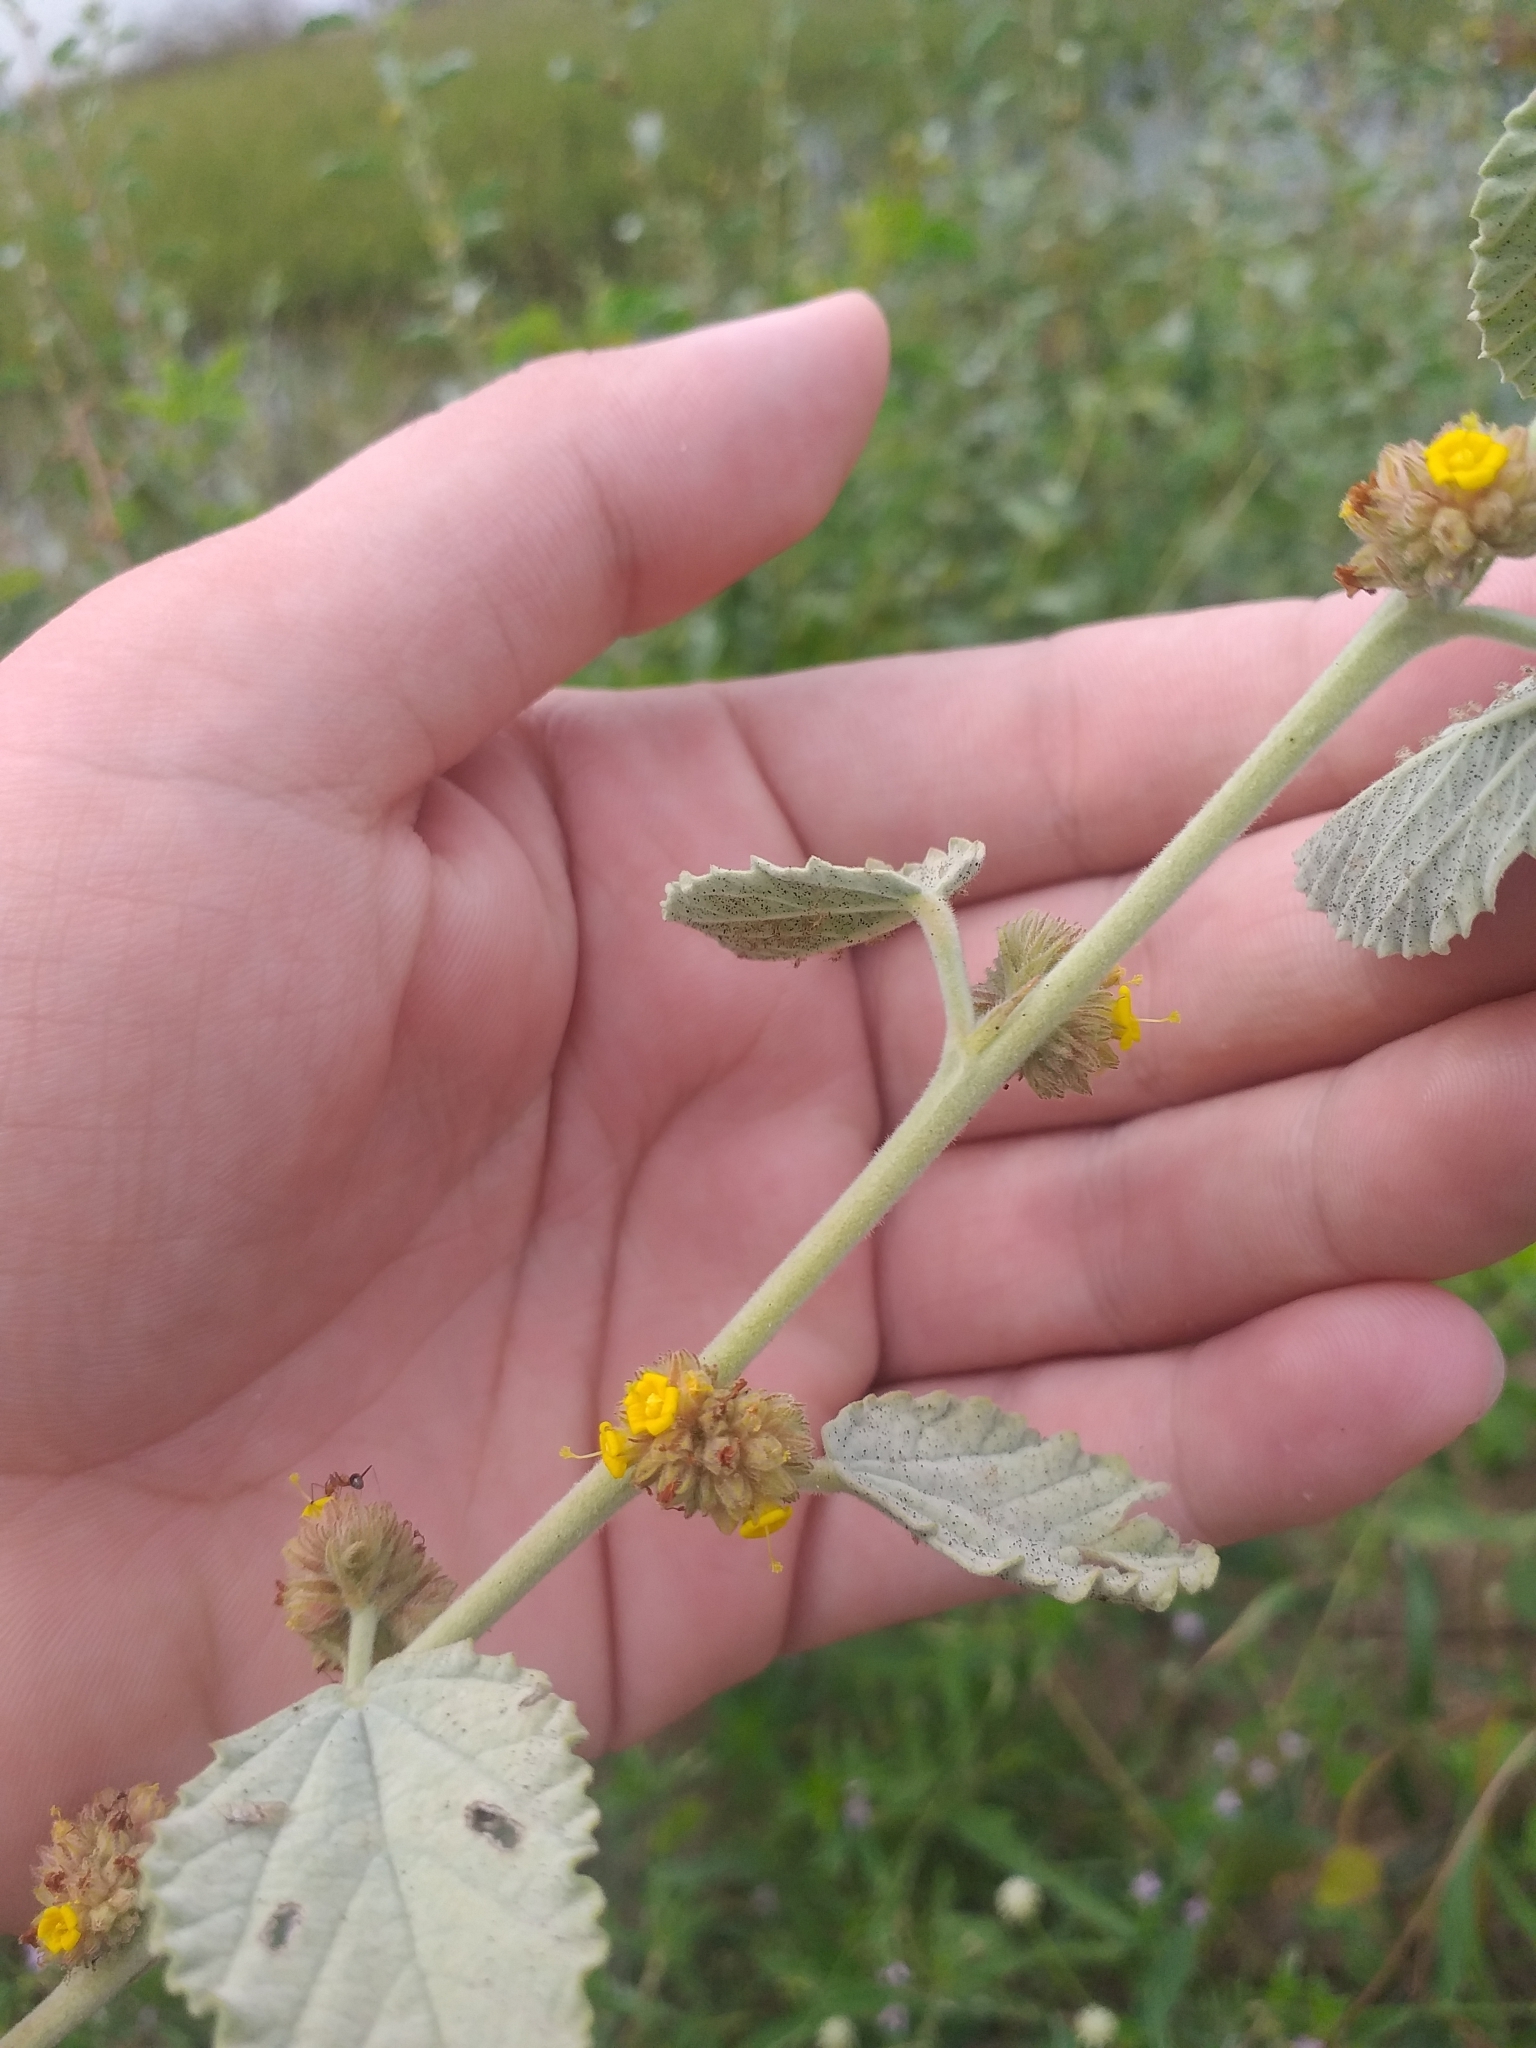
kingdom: Plantae
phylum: Tracheophyta
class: Magnoliopsida
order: Malvales
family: Malvaceae
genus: Waltheria
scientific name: Waltheria rotundifolia
